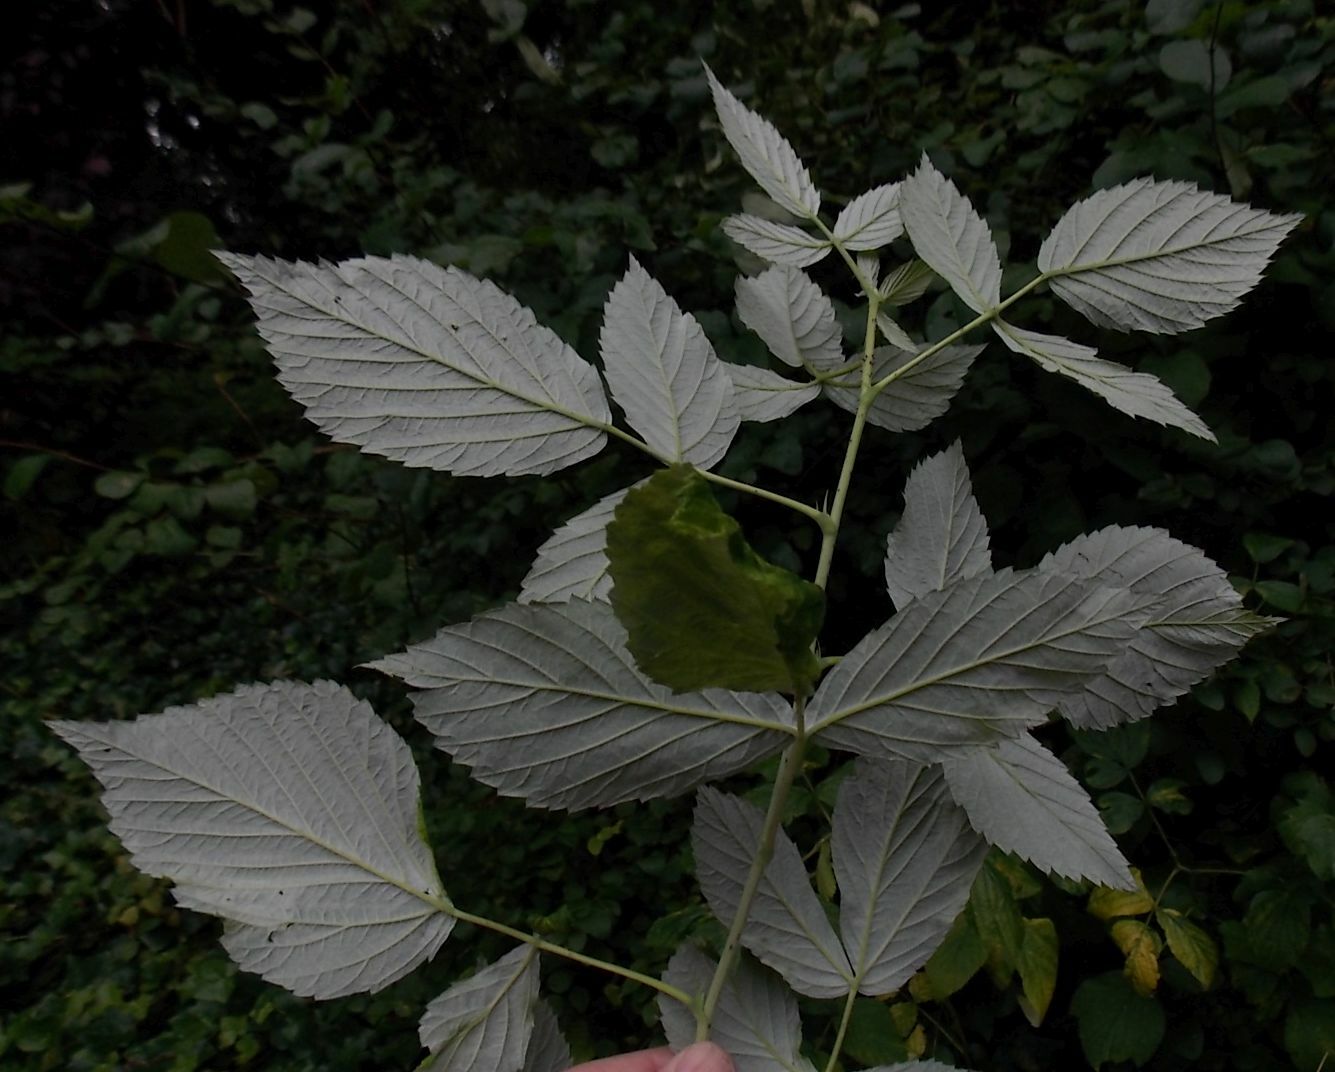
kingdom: Plantae
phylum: Tracheophyta
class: Magnoliopsida
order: Rosales
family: Rosaceae
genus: Rubus
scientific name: Rubus idaeus
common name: Raspberry
